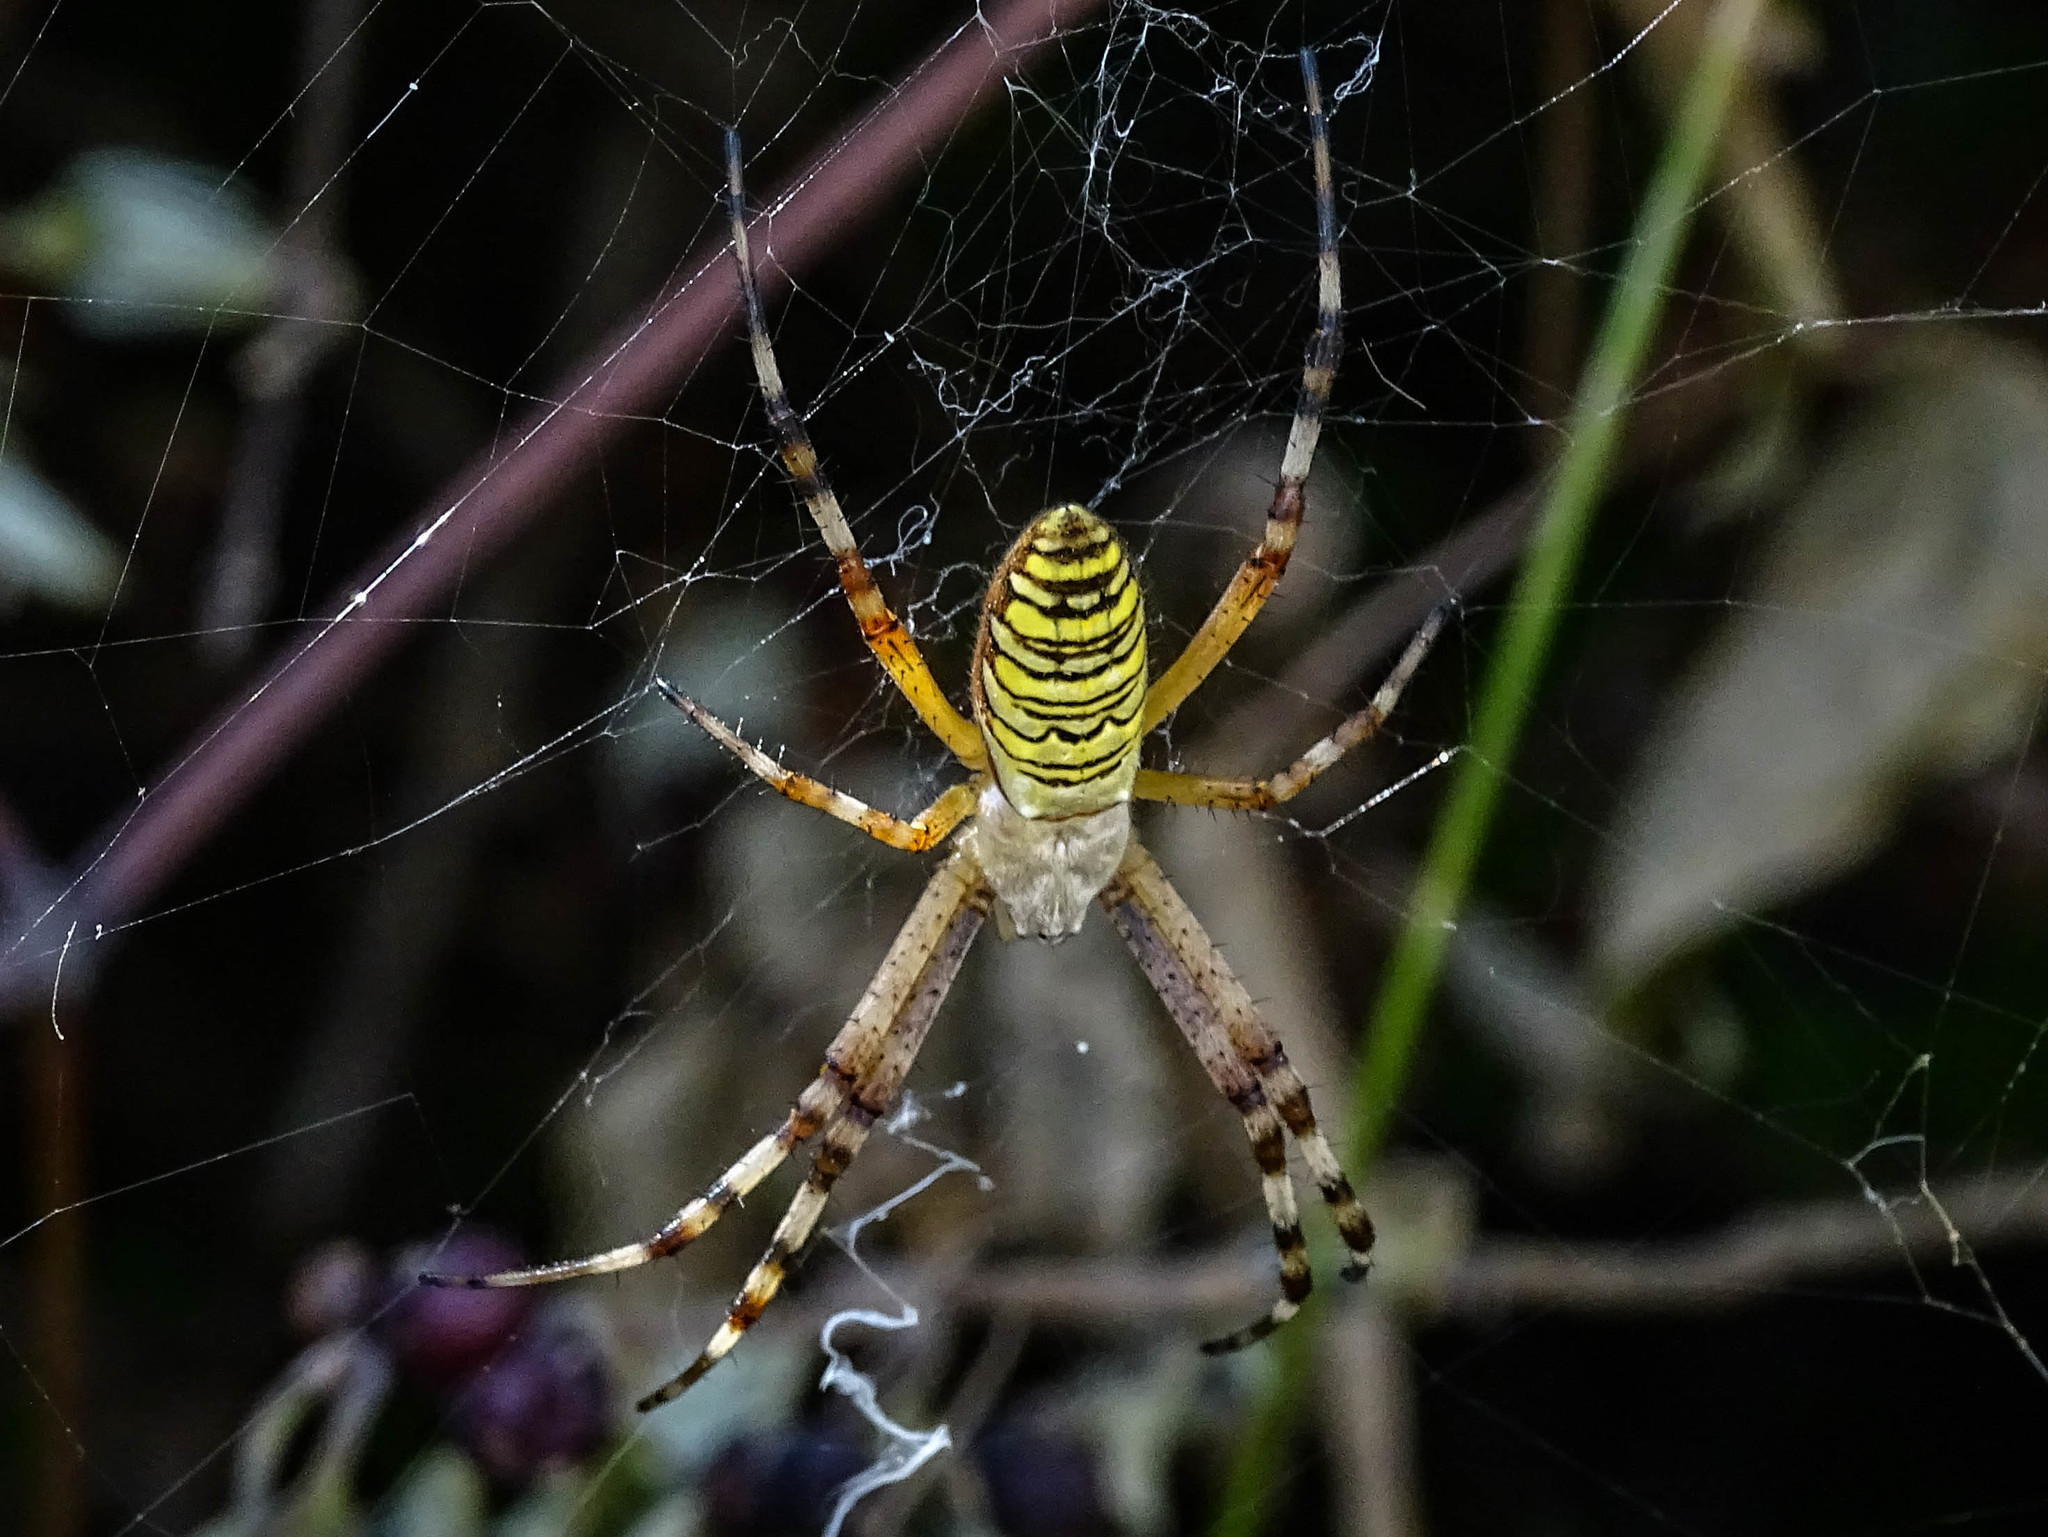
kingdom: Animalia
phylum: Arthropoda
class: Arachnida
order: Araneae
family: Araneidae
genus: Argiope
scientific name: Argiope bruennichi
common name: Wasp spider
